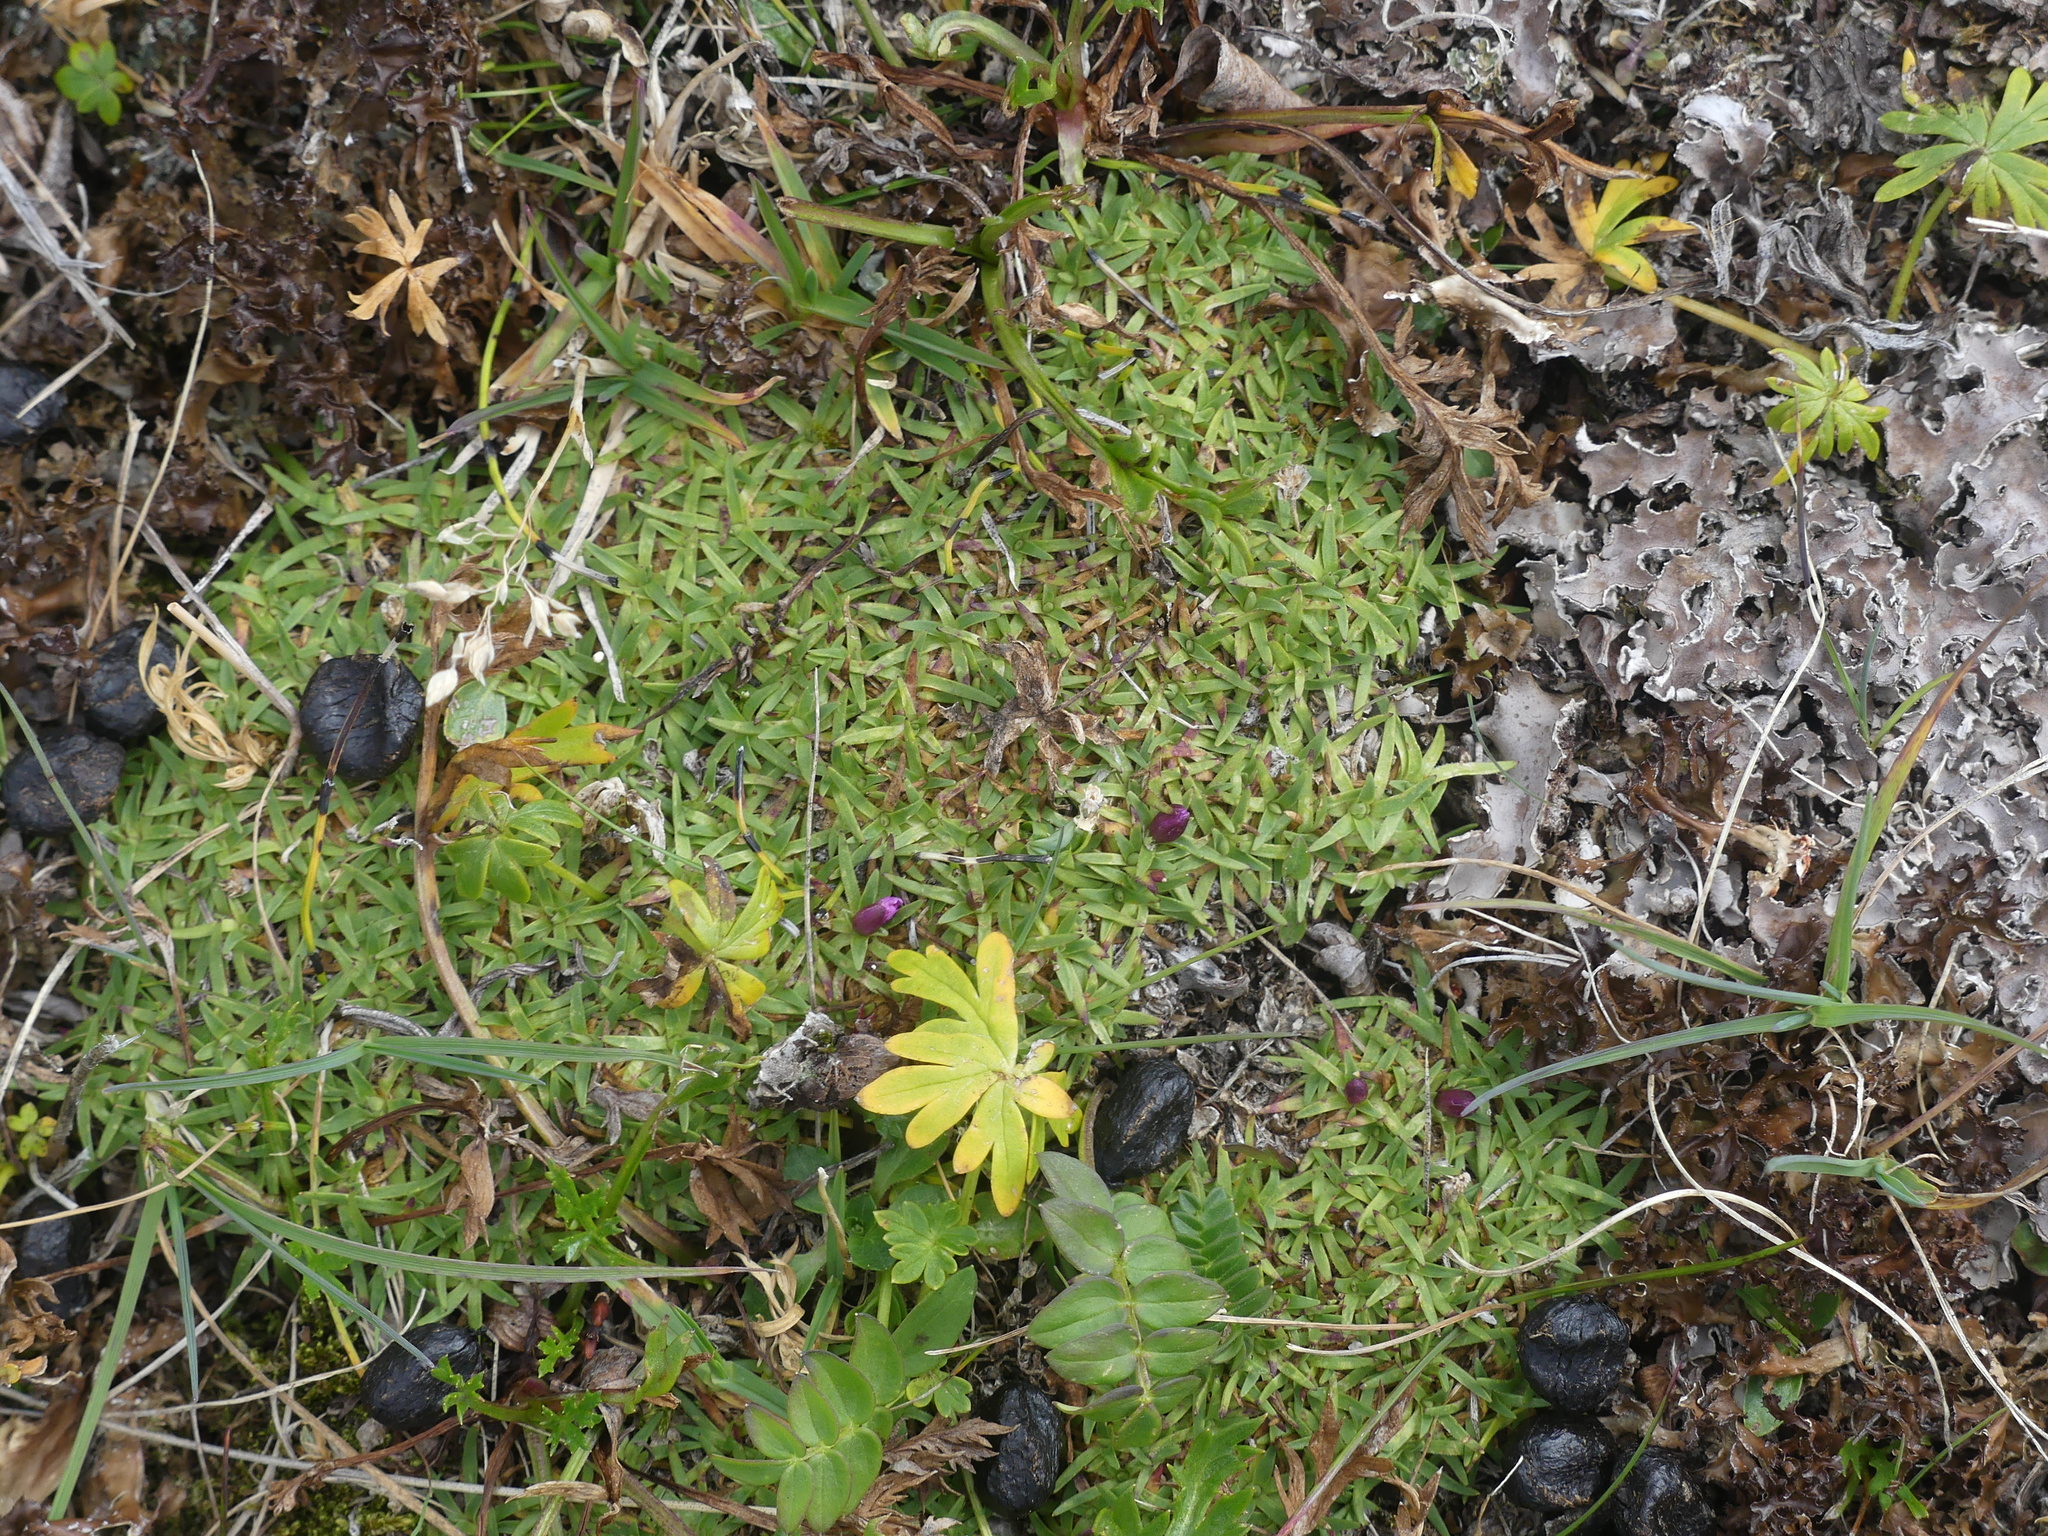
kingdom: Plantae
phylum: Tracheophyta
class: Magnoliopsida
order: Caryophyllales
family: Caryophyllaceae
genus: Silene
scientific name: Silene acaulis
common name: Moss campion
